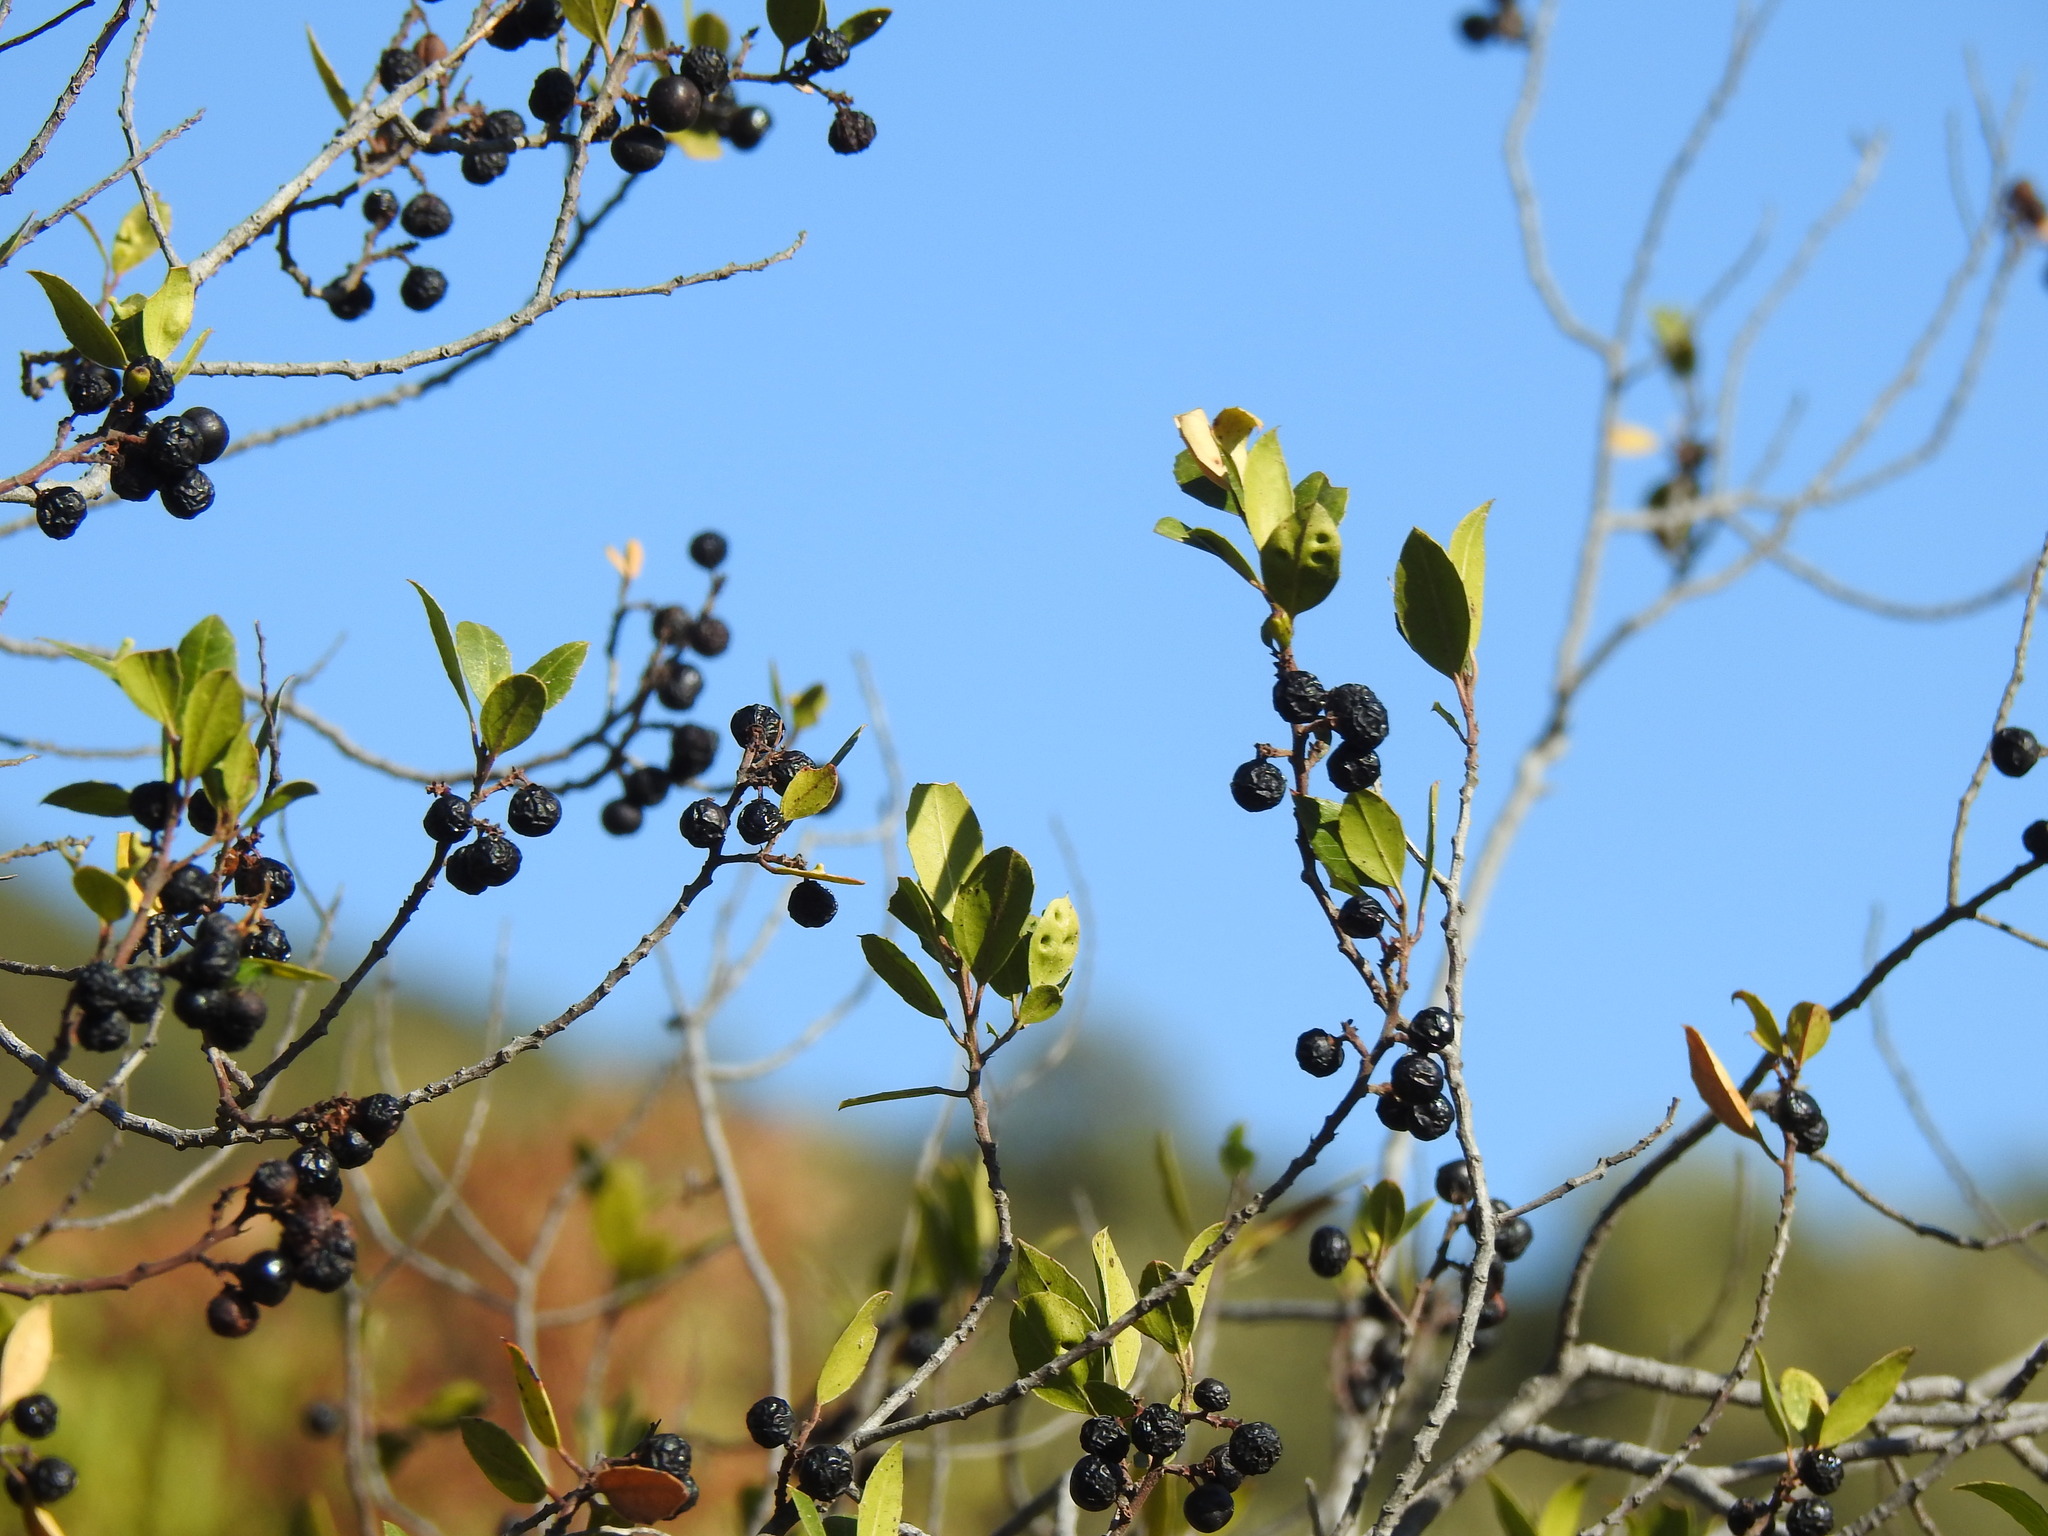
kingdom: Plantae
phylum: Tracheophyta
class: Magnoliopsida
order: Rosales
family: Rhamnaceae
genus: Rhamnus
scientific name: Rhamnus alaternus
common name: Mediterranean buckthorn
